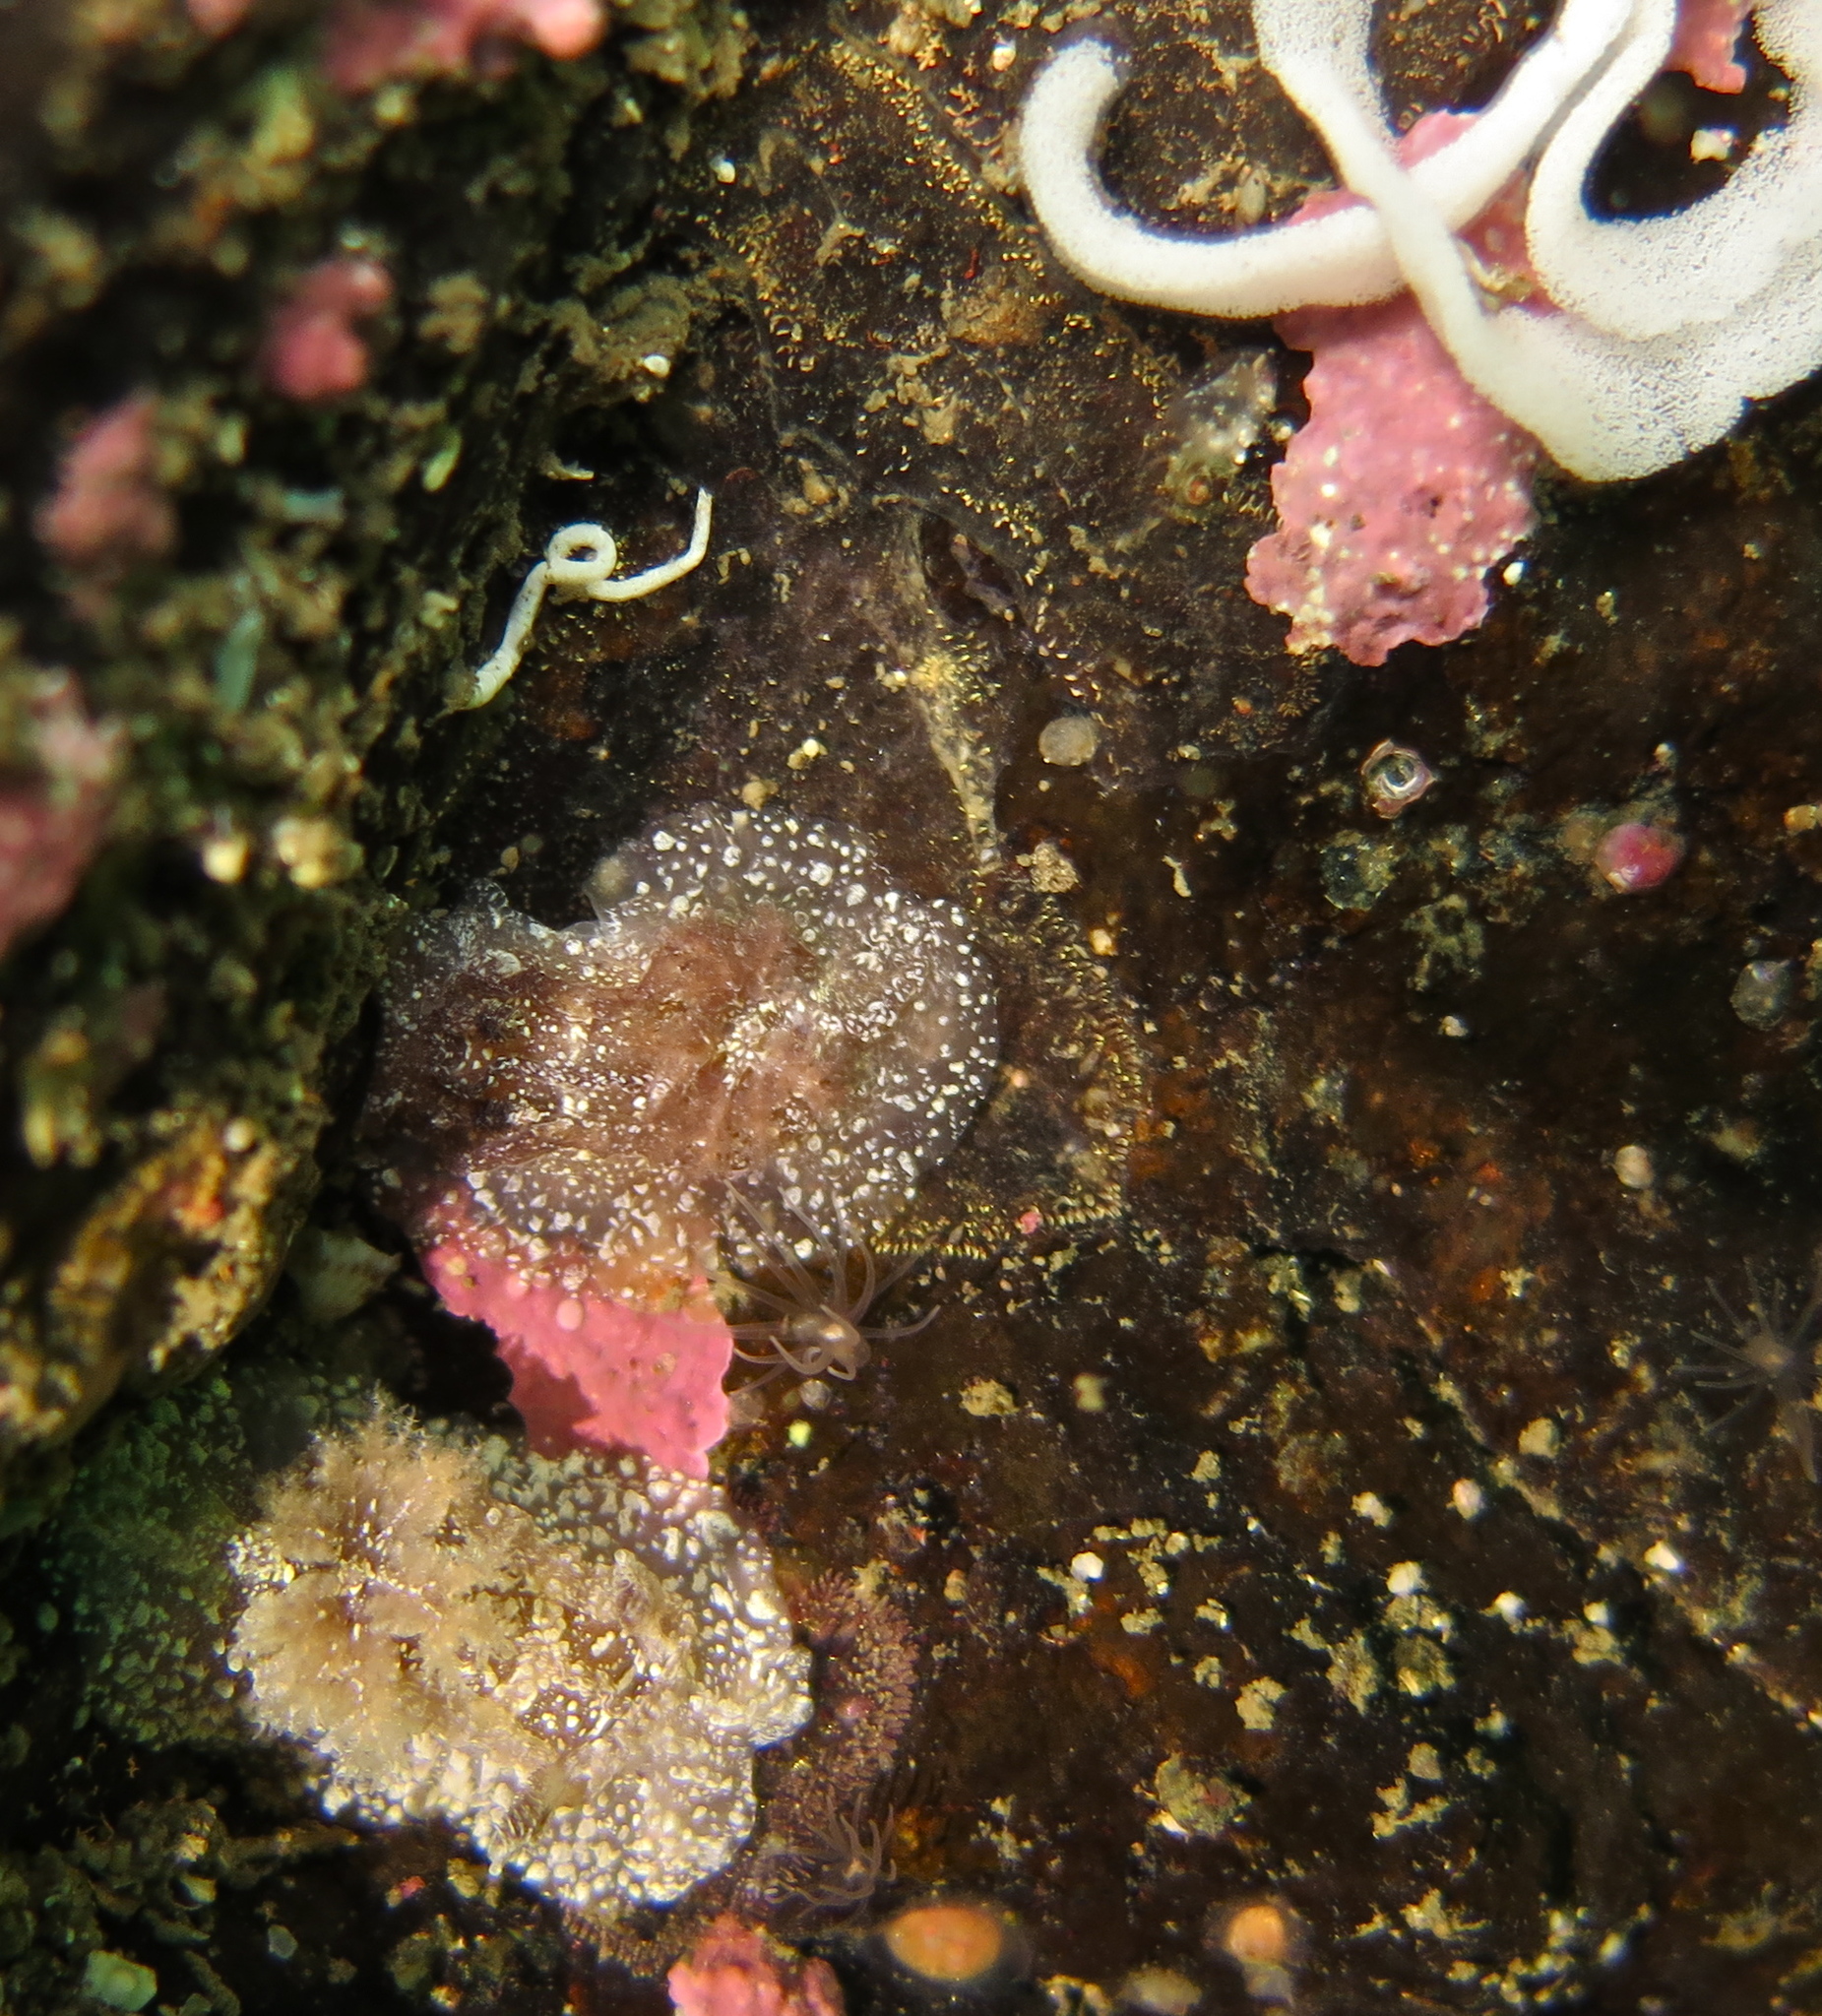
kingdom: Animalia
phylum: Mollusca
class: Gastropoda
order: Nudibranchia
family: Goniodorididae
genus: Pelagella
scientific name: Pelagella castanea
